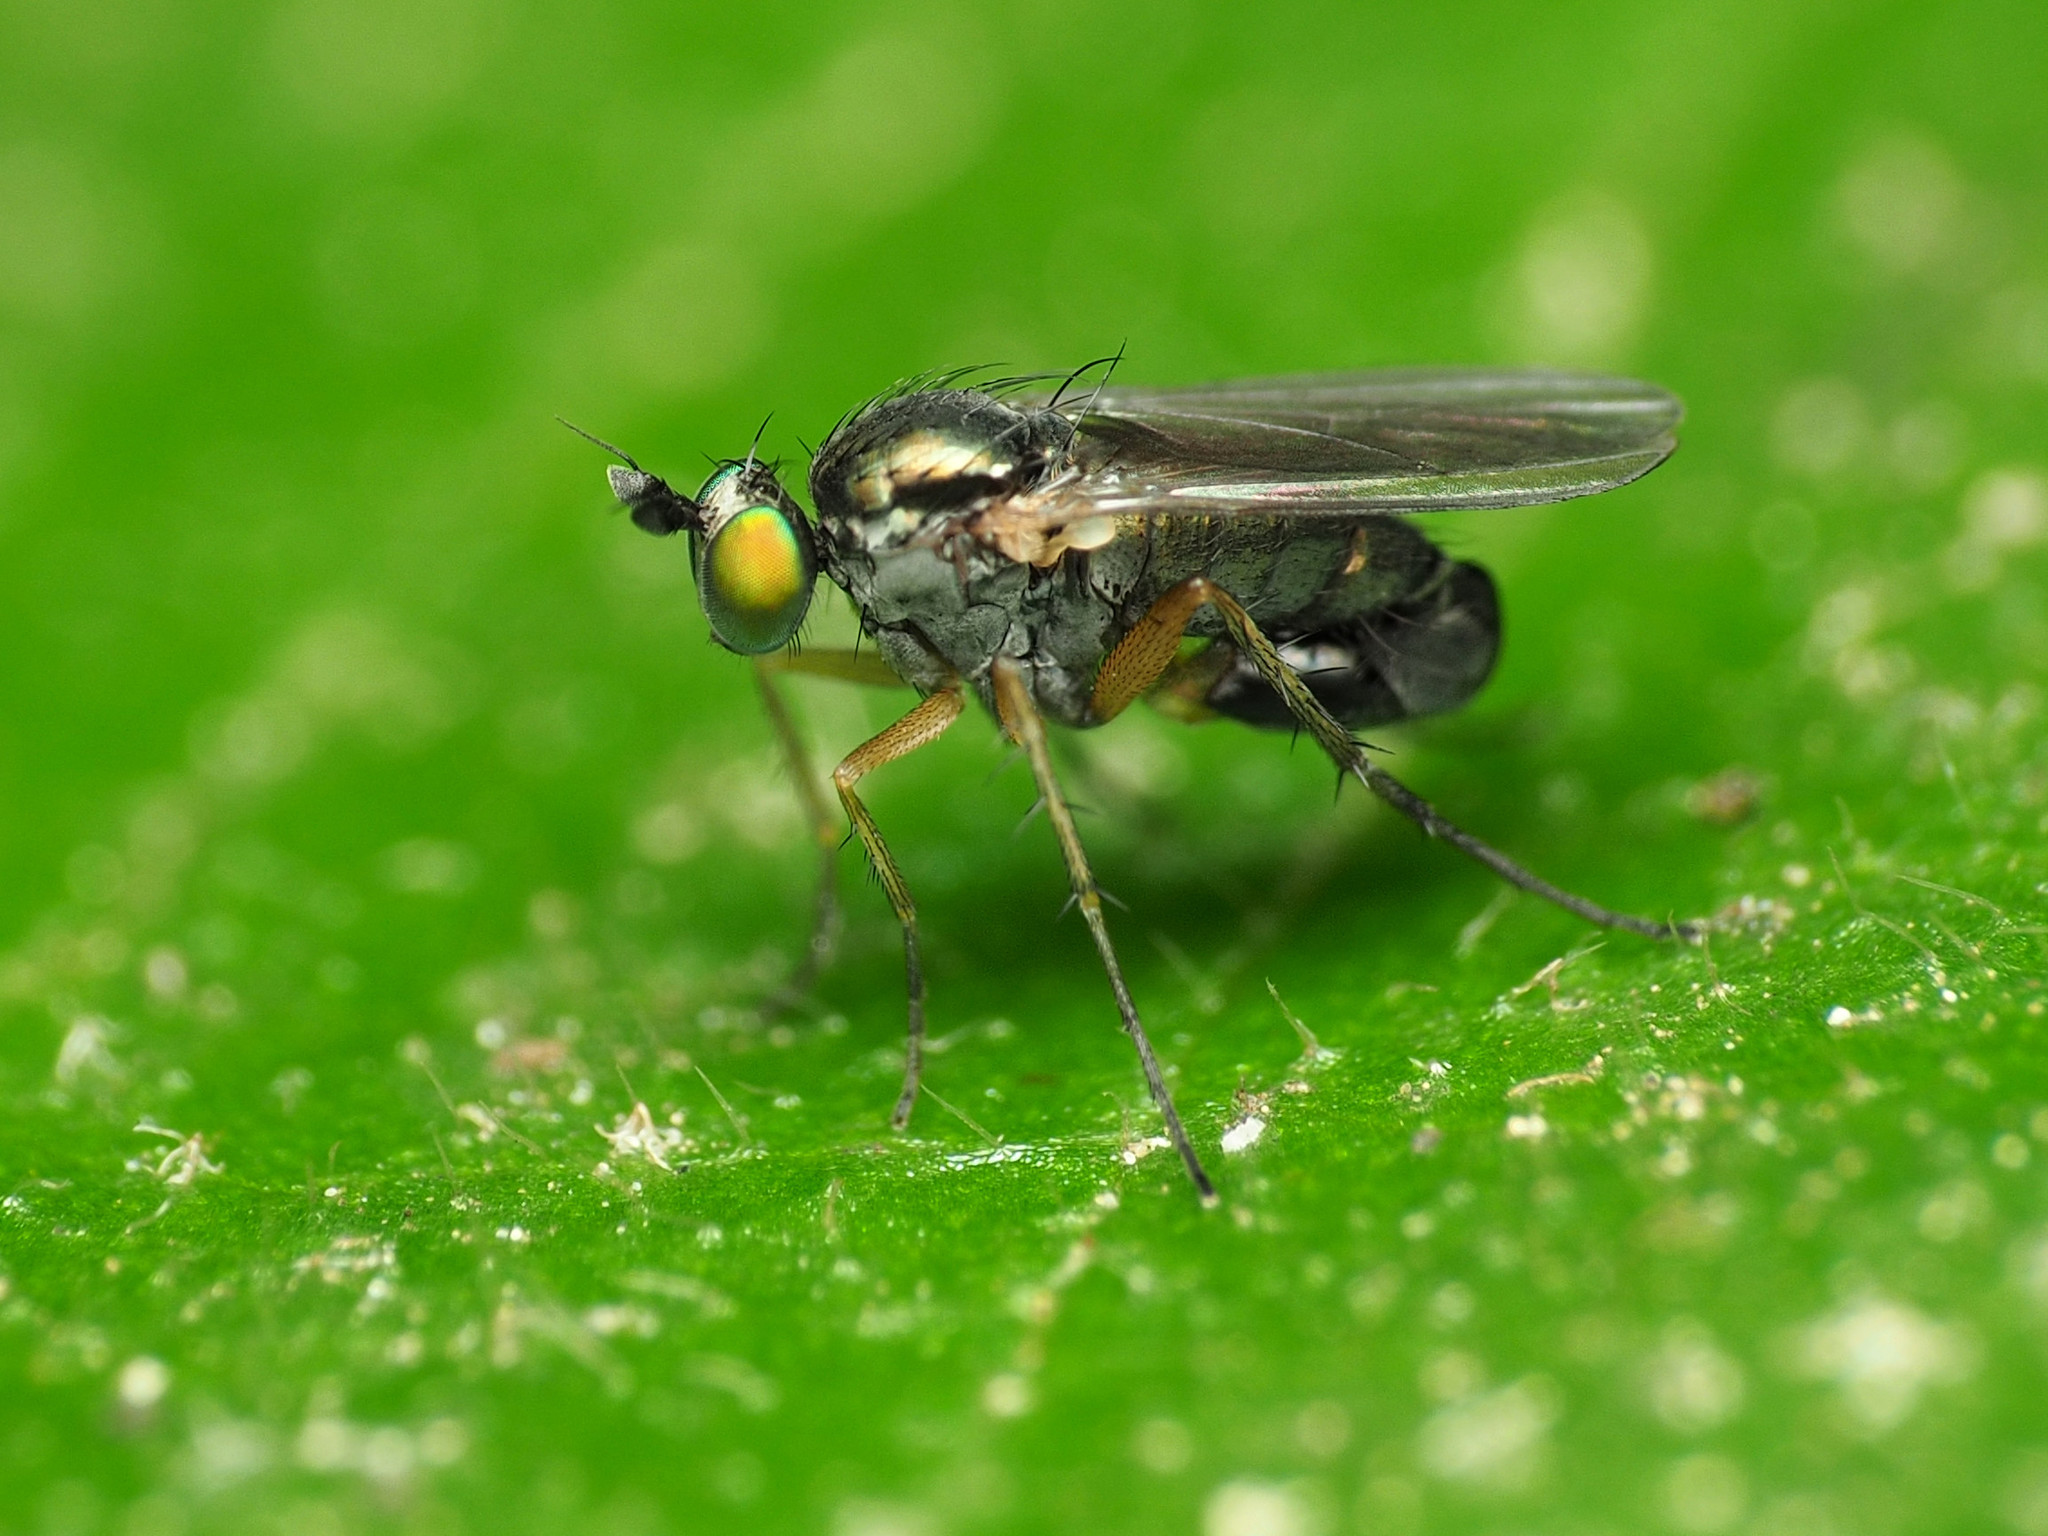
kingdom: Animalia
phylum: Arthropoda
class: Insecta
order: Diptera
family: Dolichopodidae
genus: Gymnopternus
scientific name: Gymnopternus meniscus
